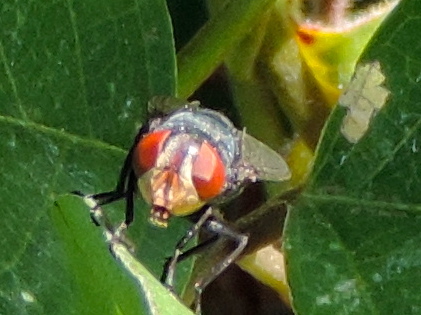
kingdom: Animalia
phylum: Arthropoda
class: Insecta
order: Diptera
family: Calliphoridae
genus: Chrysomya
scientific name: Chrysomya megacephala
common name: Blow fly
